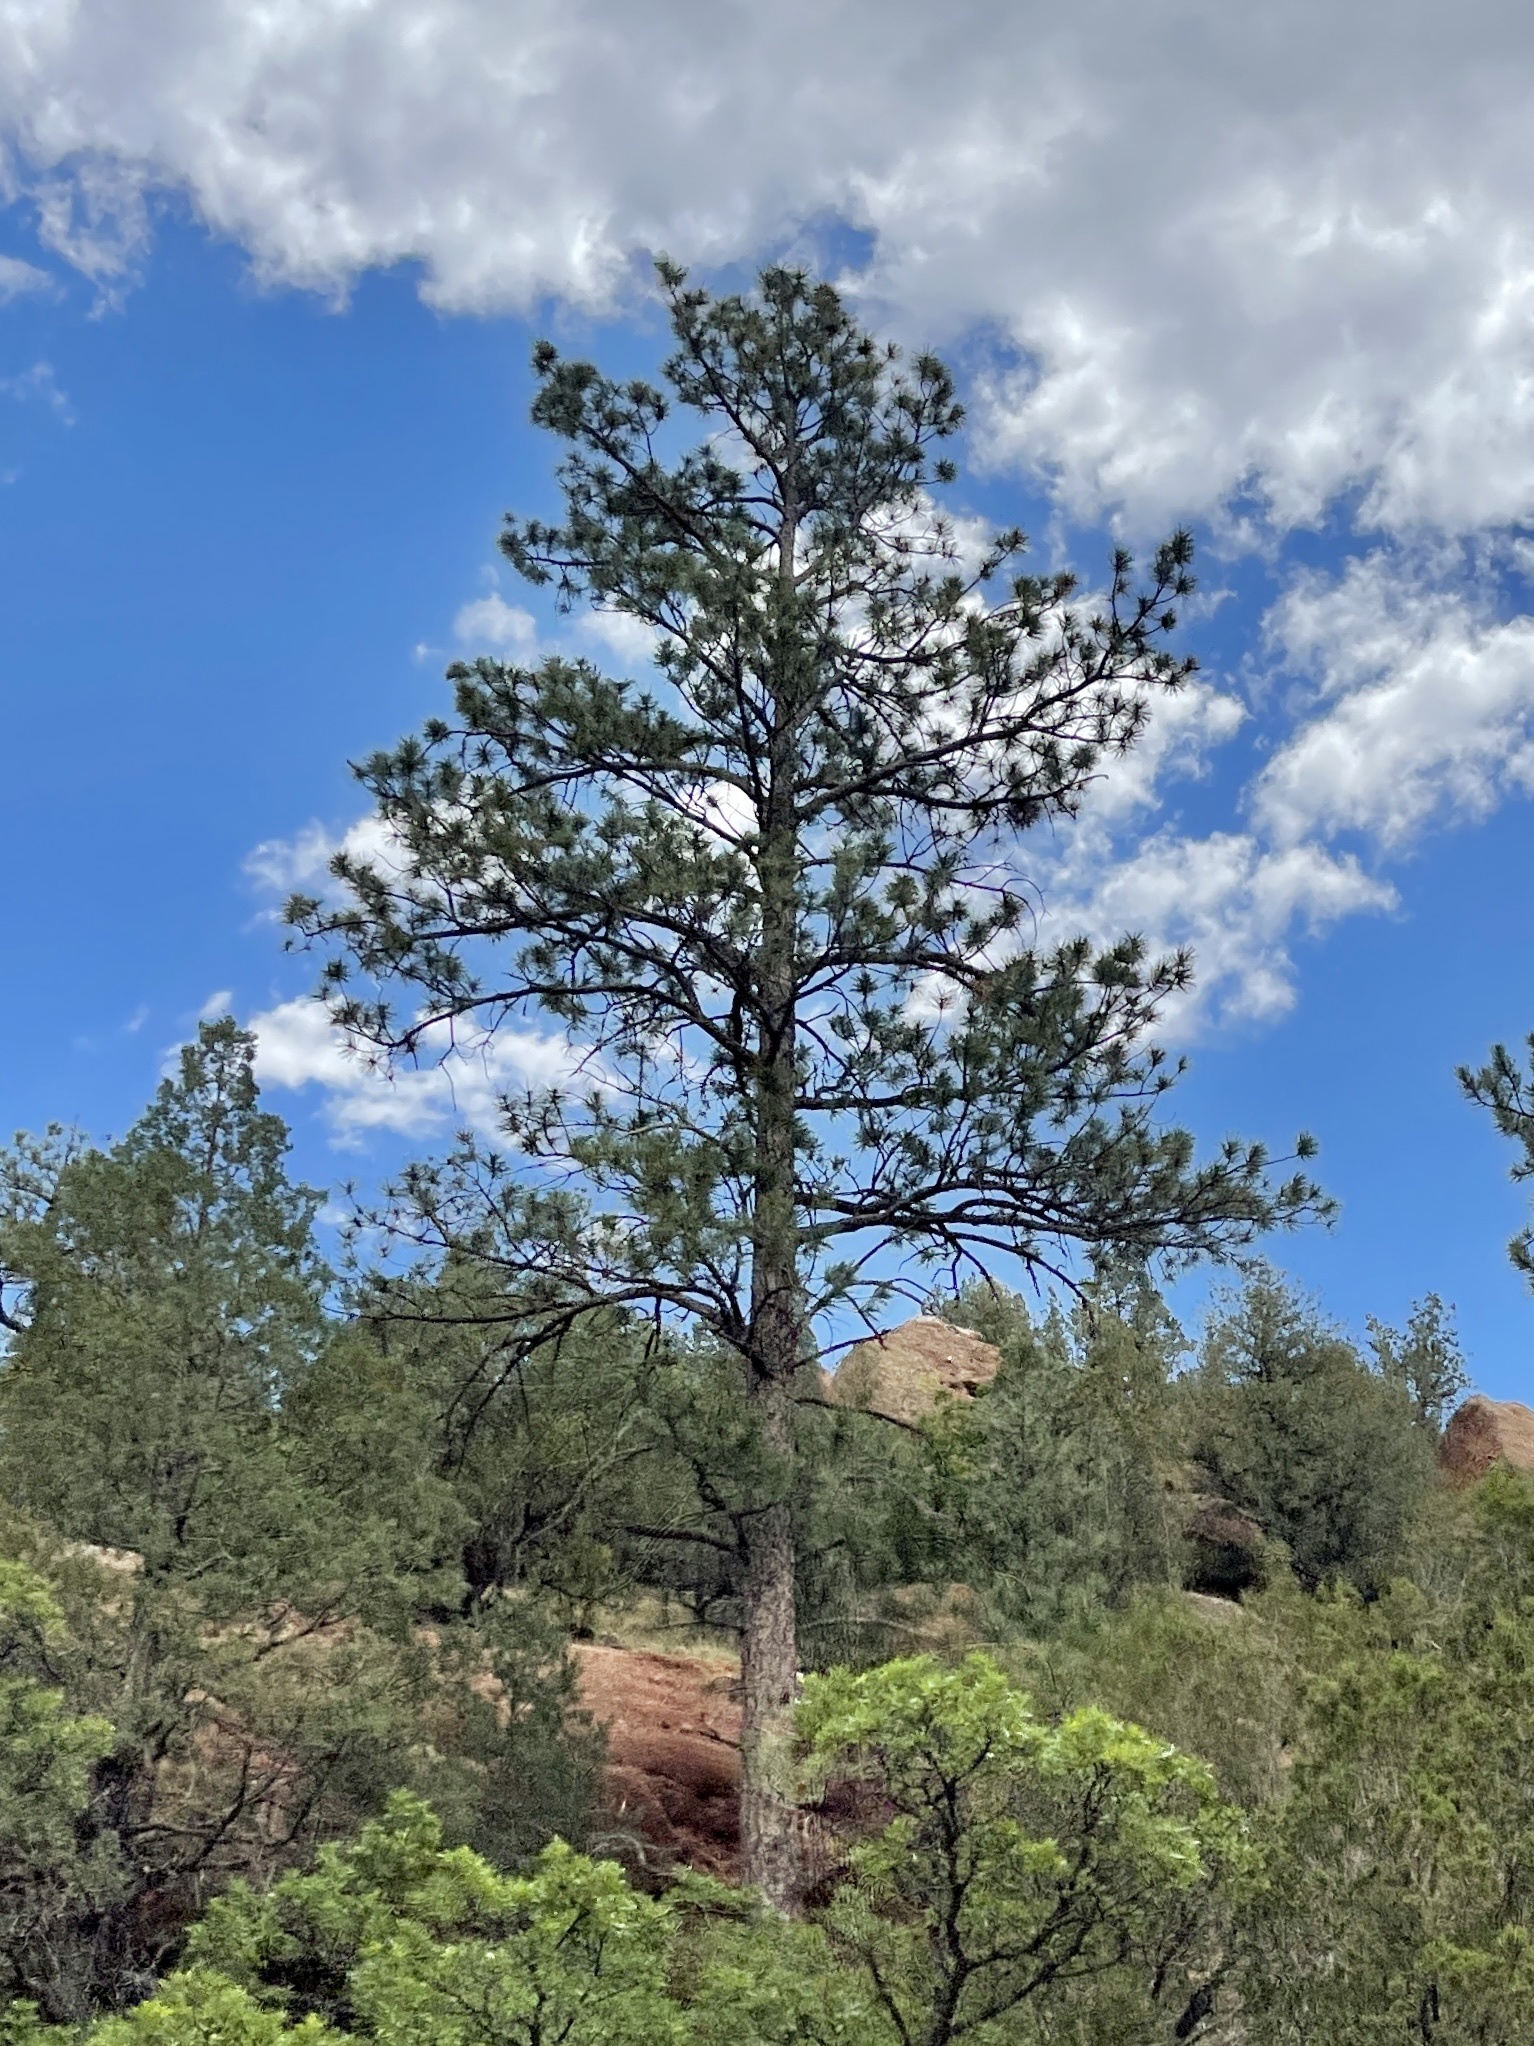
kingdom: Plantae
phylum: Tracheophyta
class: Pinopsida
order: Pinales
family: Pinaceae
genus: Pinus
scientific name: Pinus ponderosa
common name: Western yellow-pine
